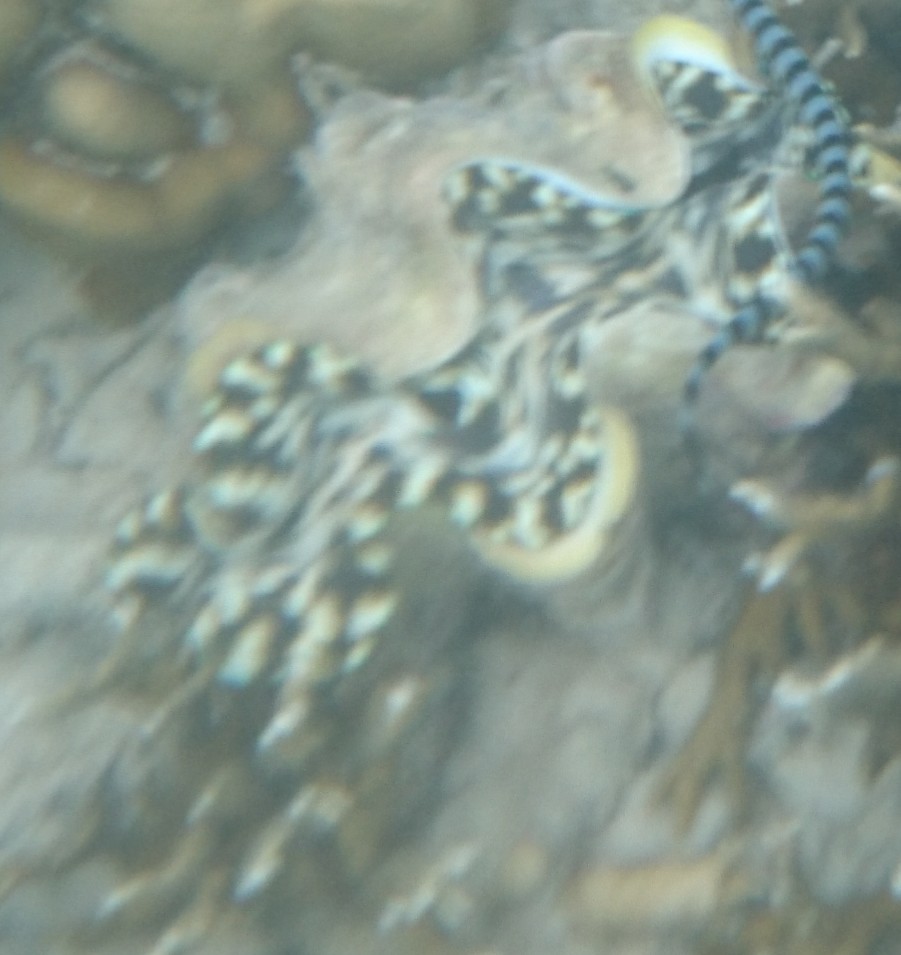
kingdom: Animalia
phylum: Mollusca
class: Bivalvia
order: Cardiida
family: Cardiidae
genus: Tridacna
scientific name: Tridacna squamosa
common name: Fluted clam
